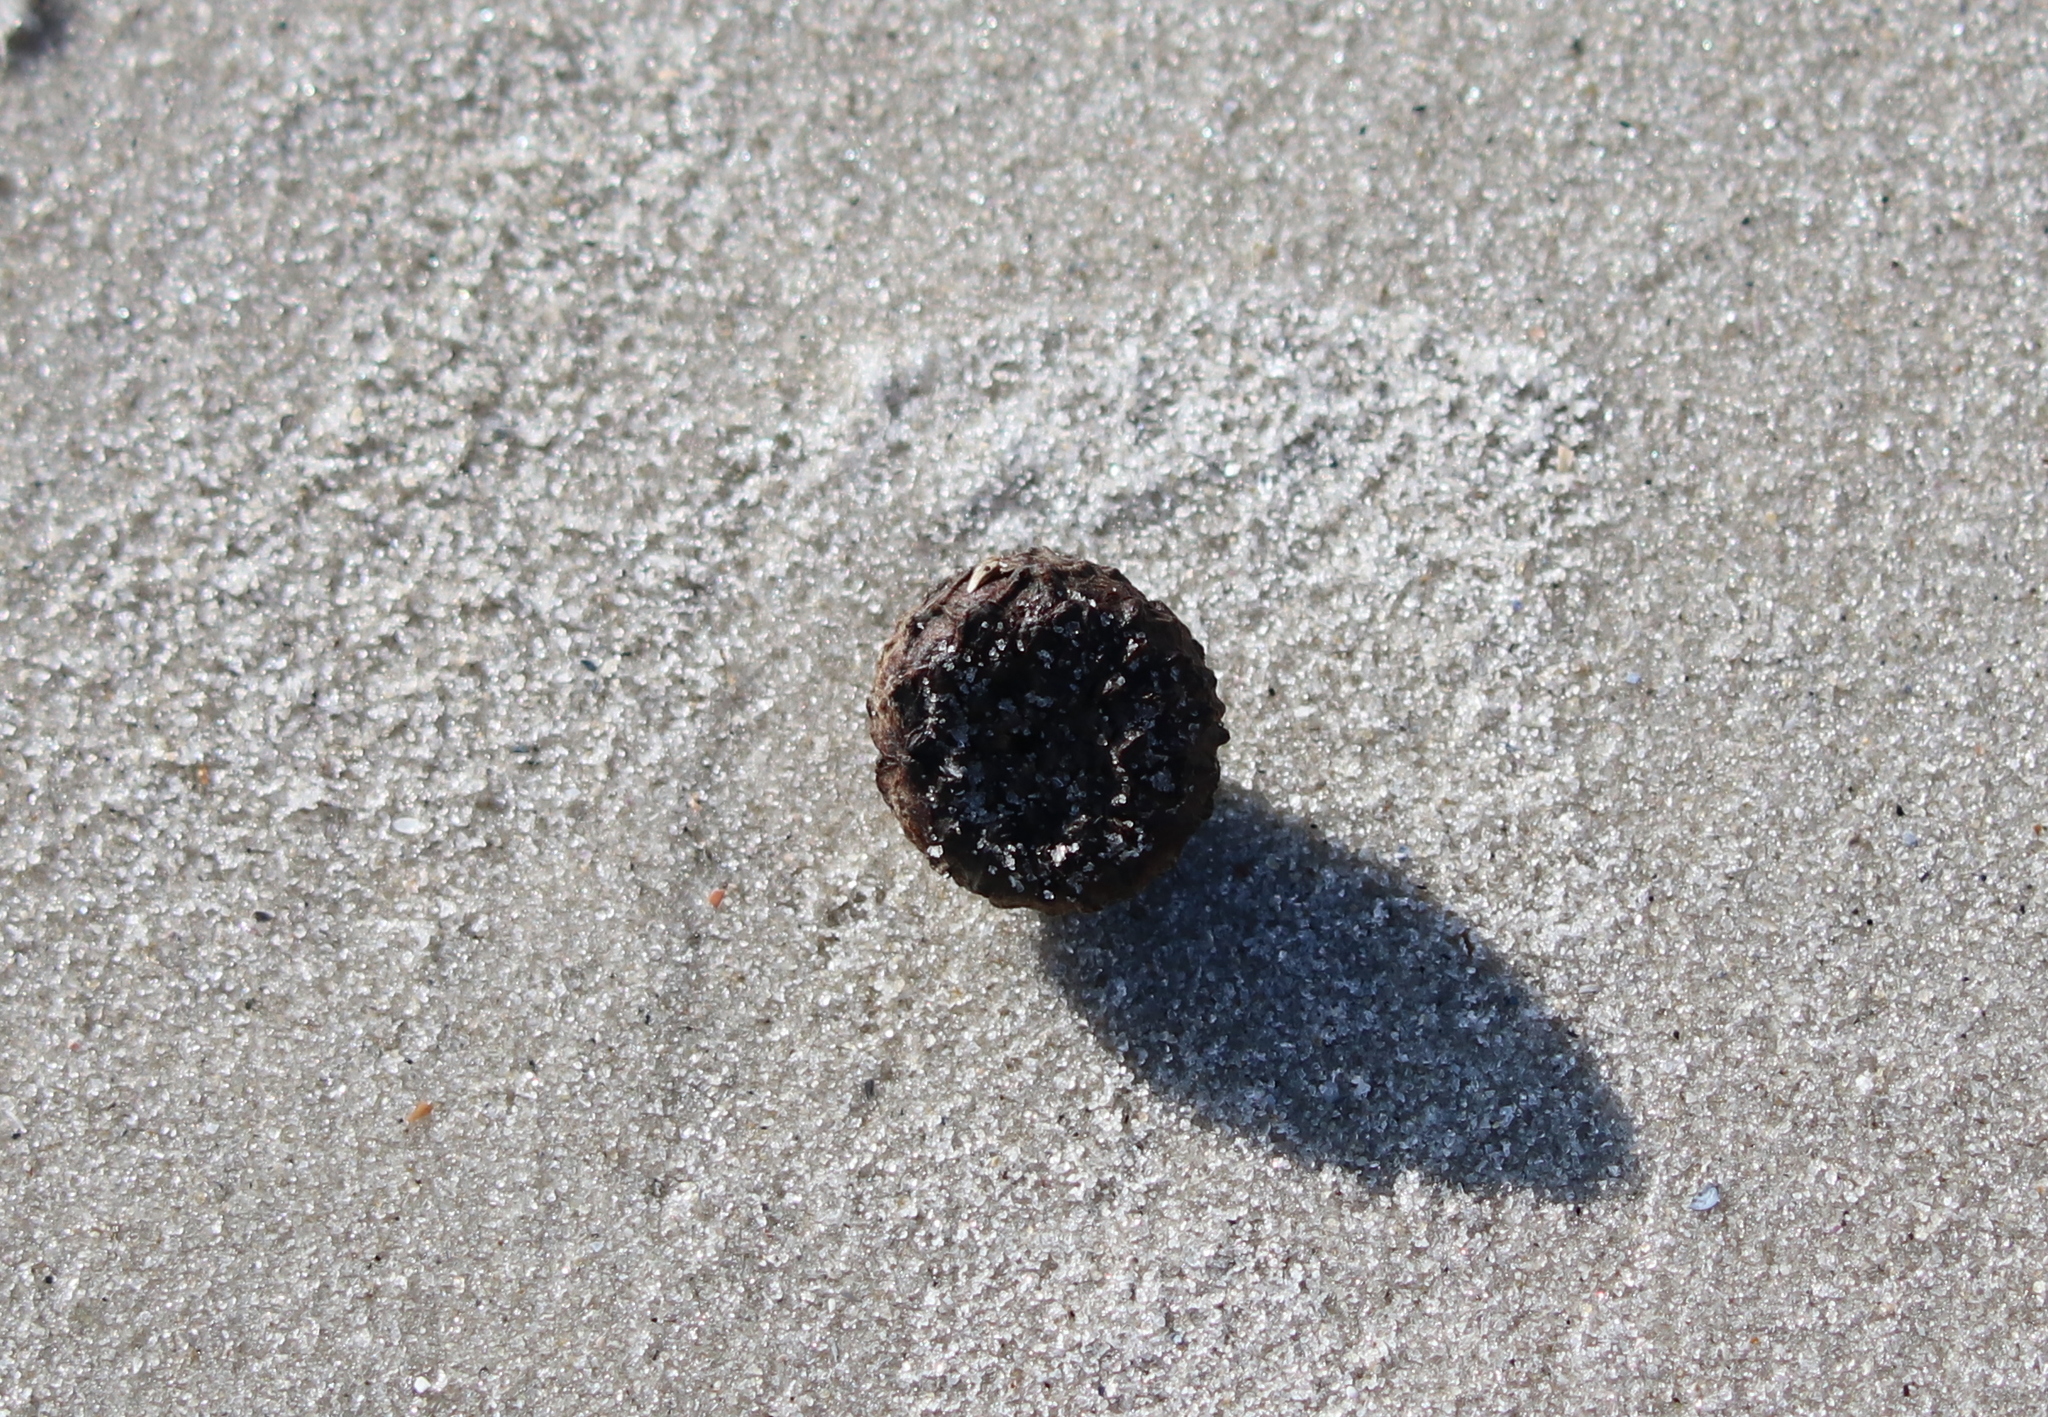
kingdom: Plantae
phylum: Tracheophyta
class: Magnoliopsida
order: Fagales
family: Fagaceae
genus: Quercus
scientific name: Quercus lyrata
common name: Overcup oak
